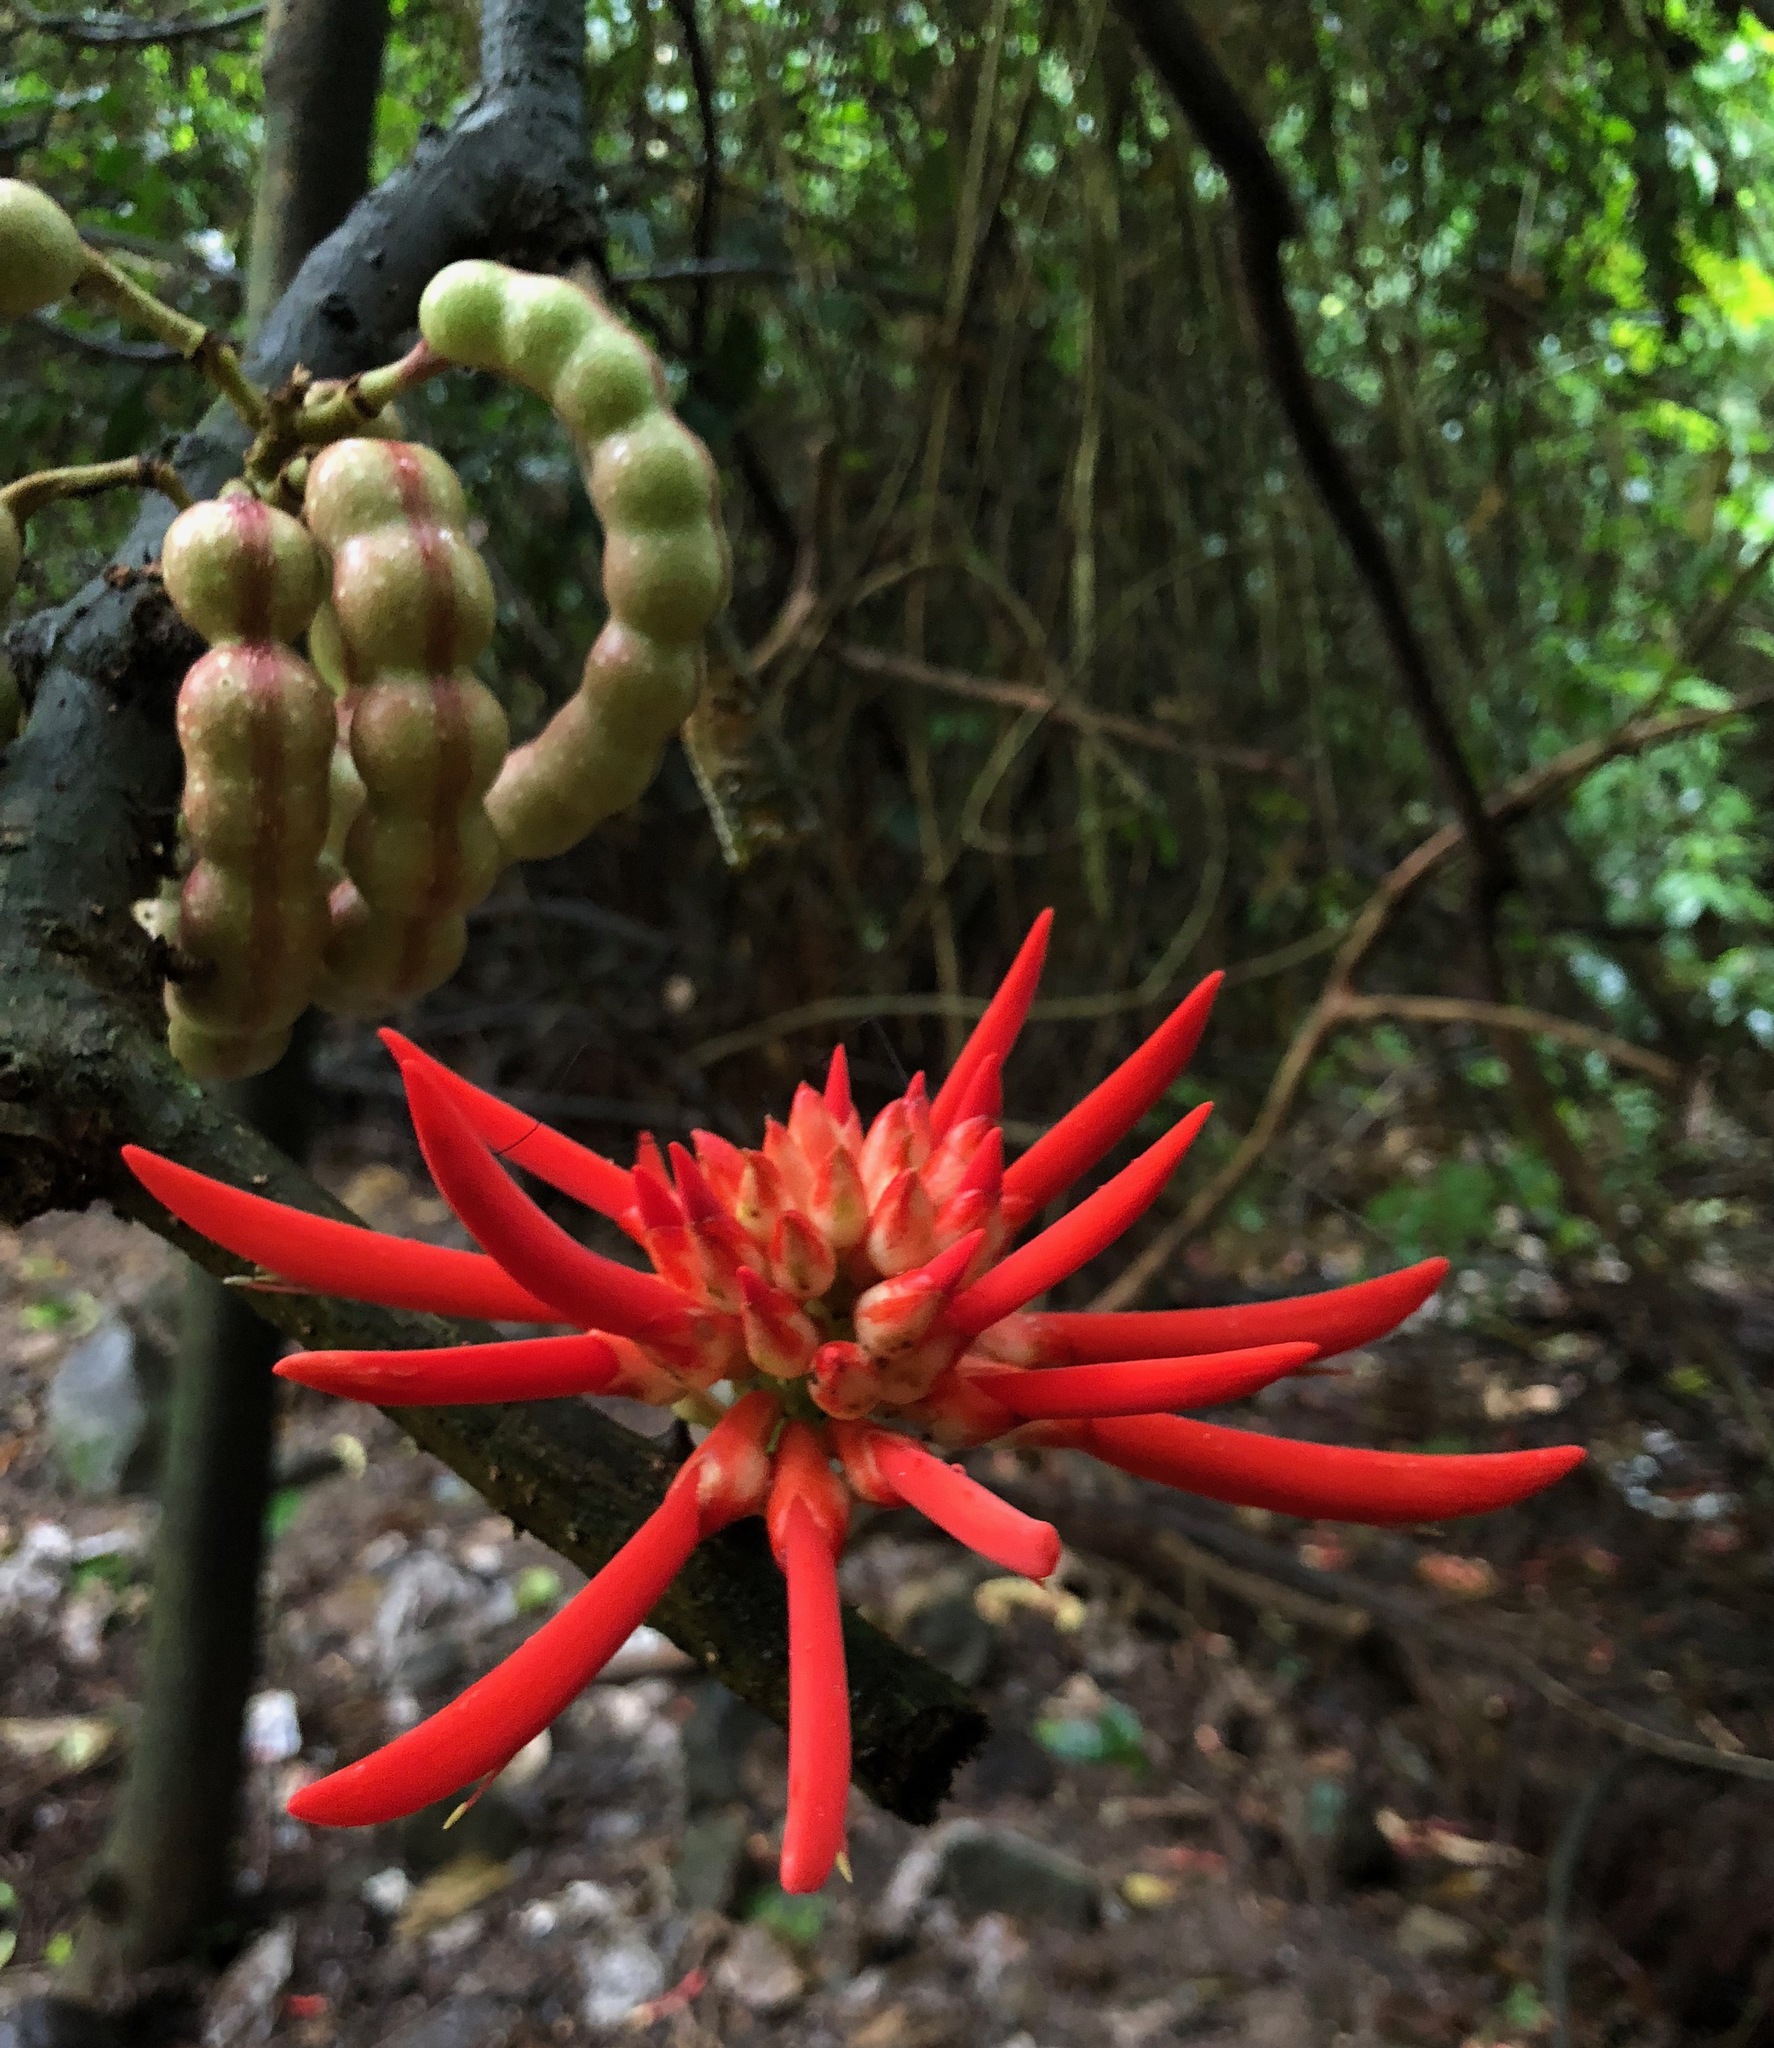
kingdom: Plantae
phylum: Tracheophyta
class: Magnoliopsida
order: Fabales
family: Fabaceae
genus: Erythrina
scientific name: Erythrina gibbosa
